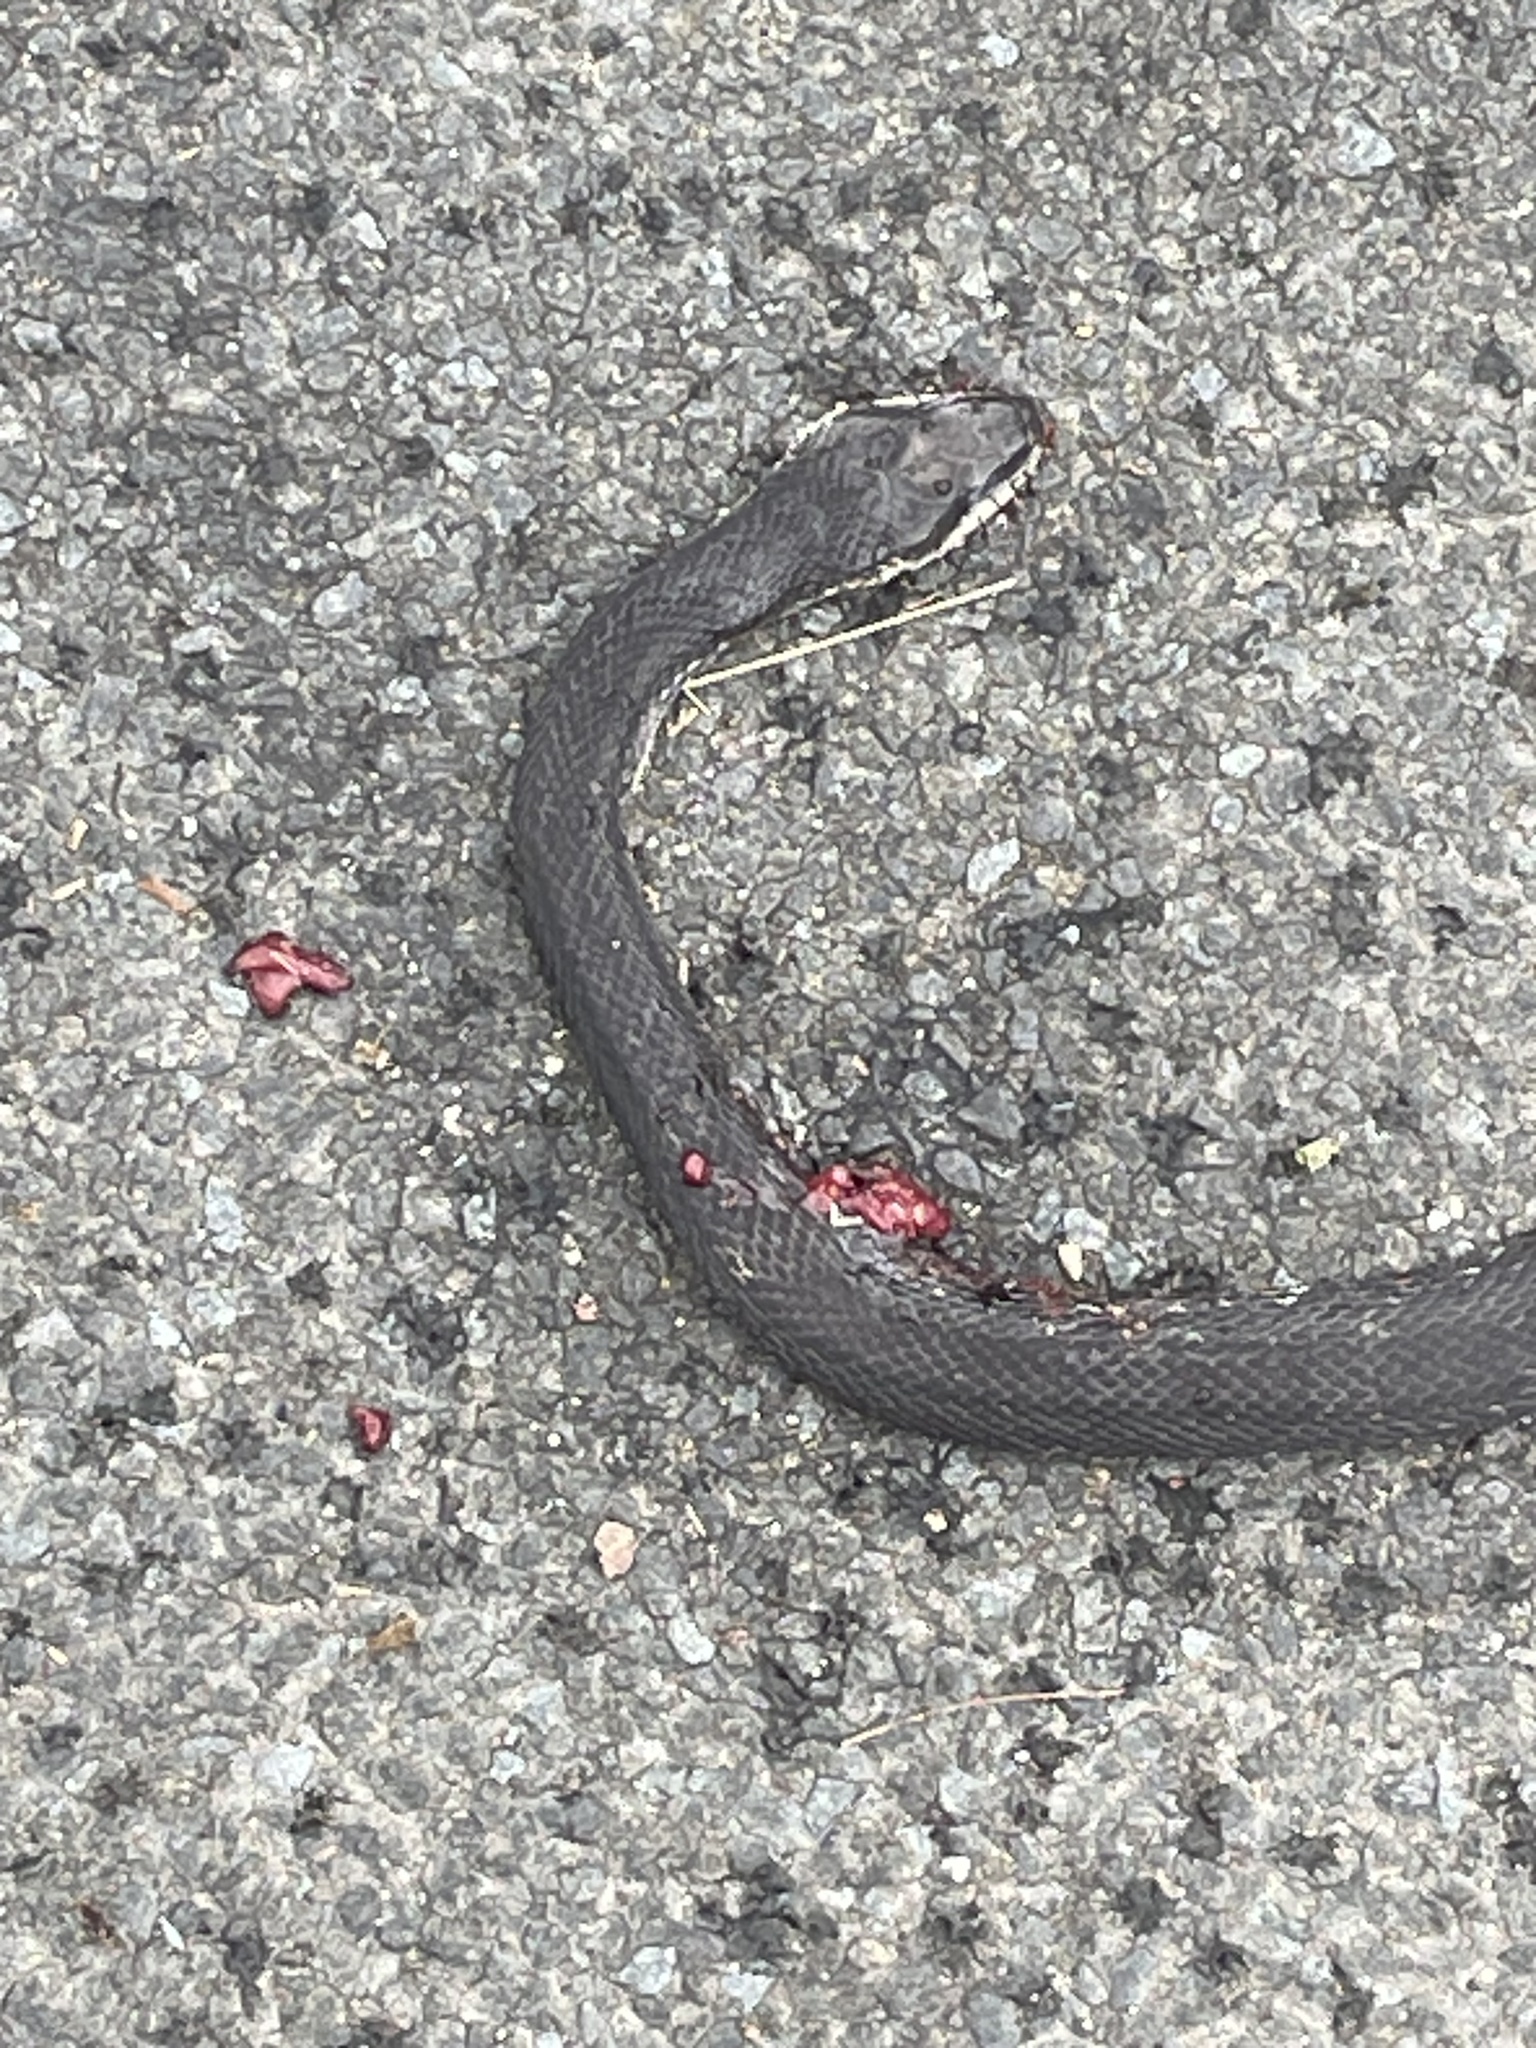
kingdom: Animalia
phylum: Chordata
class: Squamata
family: Colubridae
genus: Pantherophis
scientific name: Pantherophis alleghaniensis
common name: Eastern rat snake
